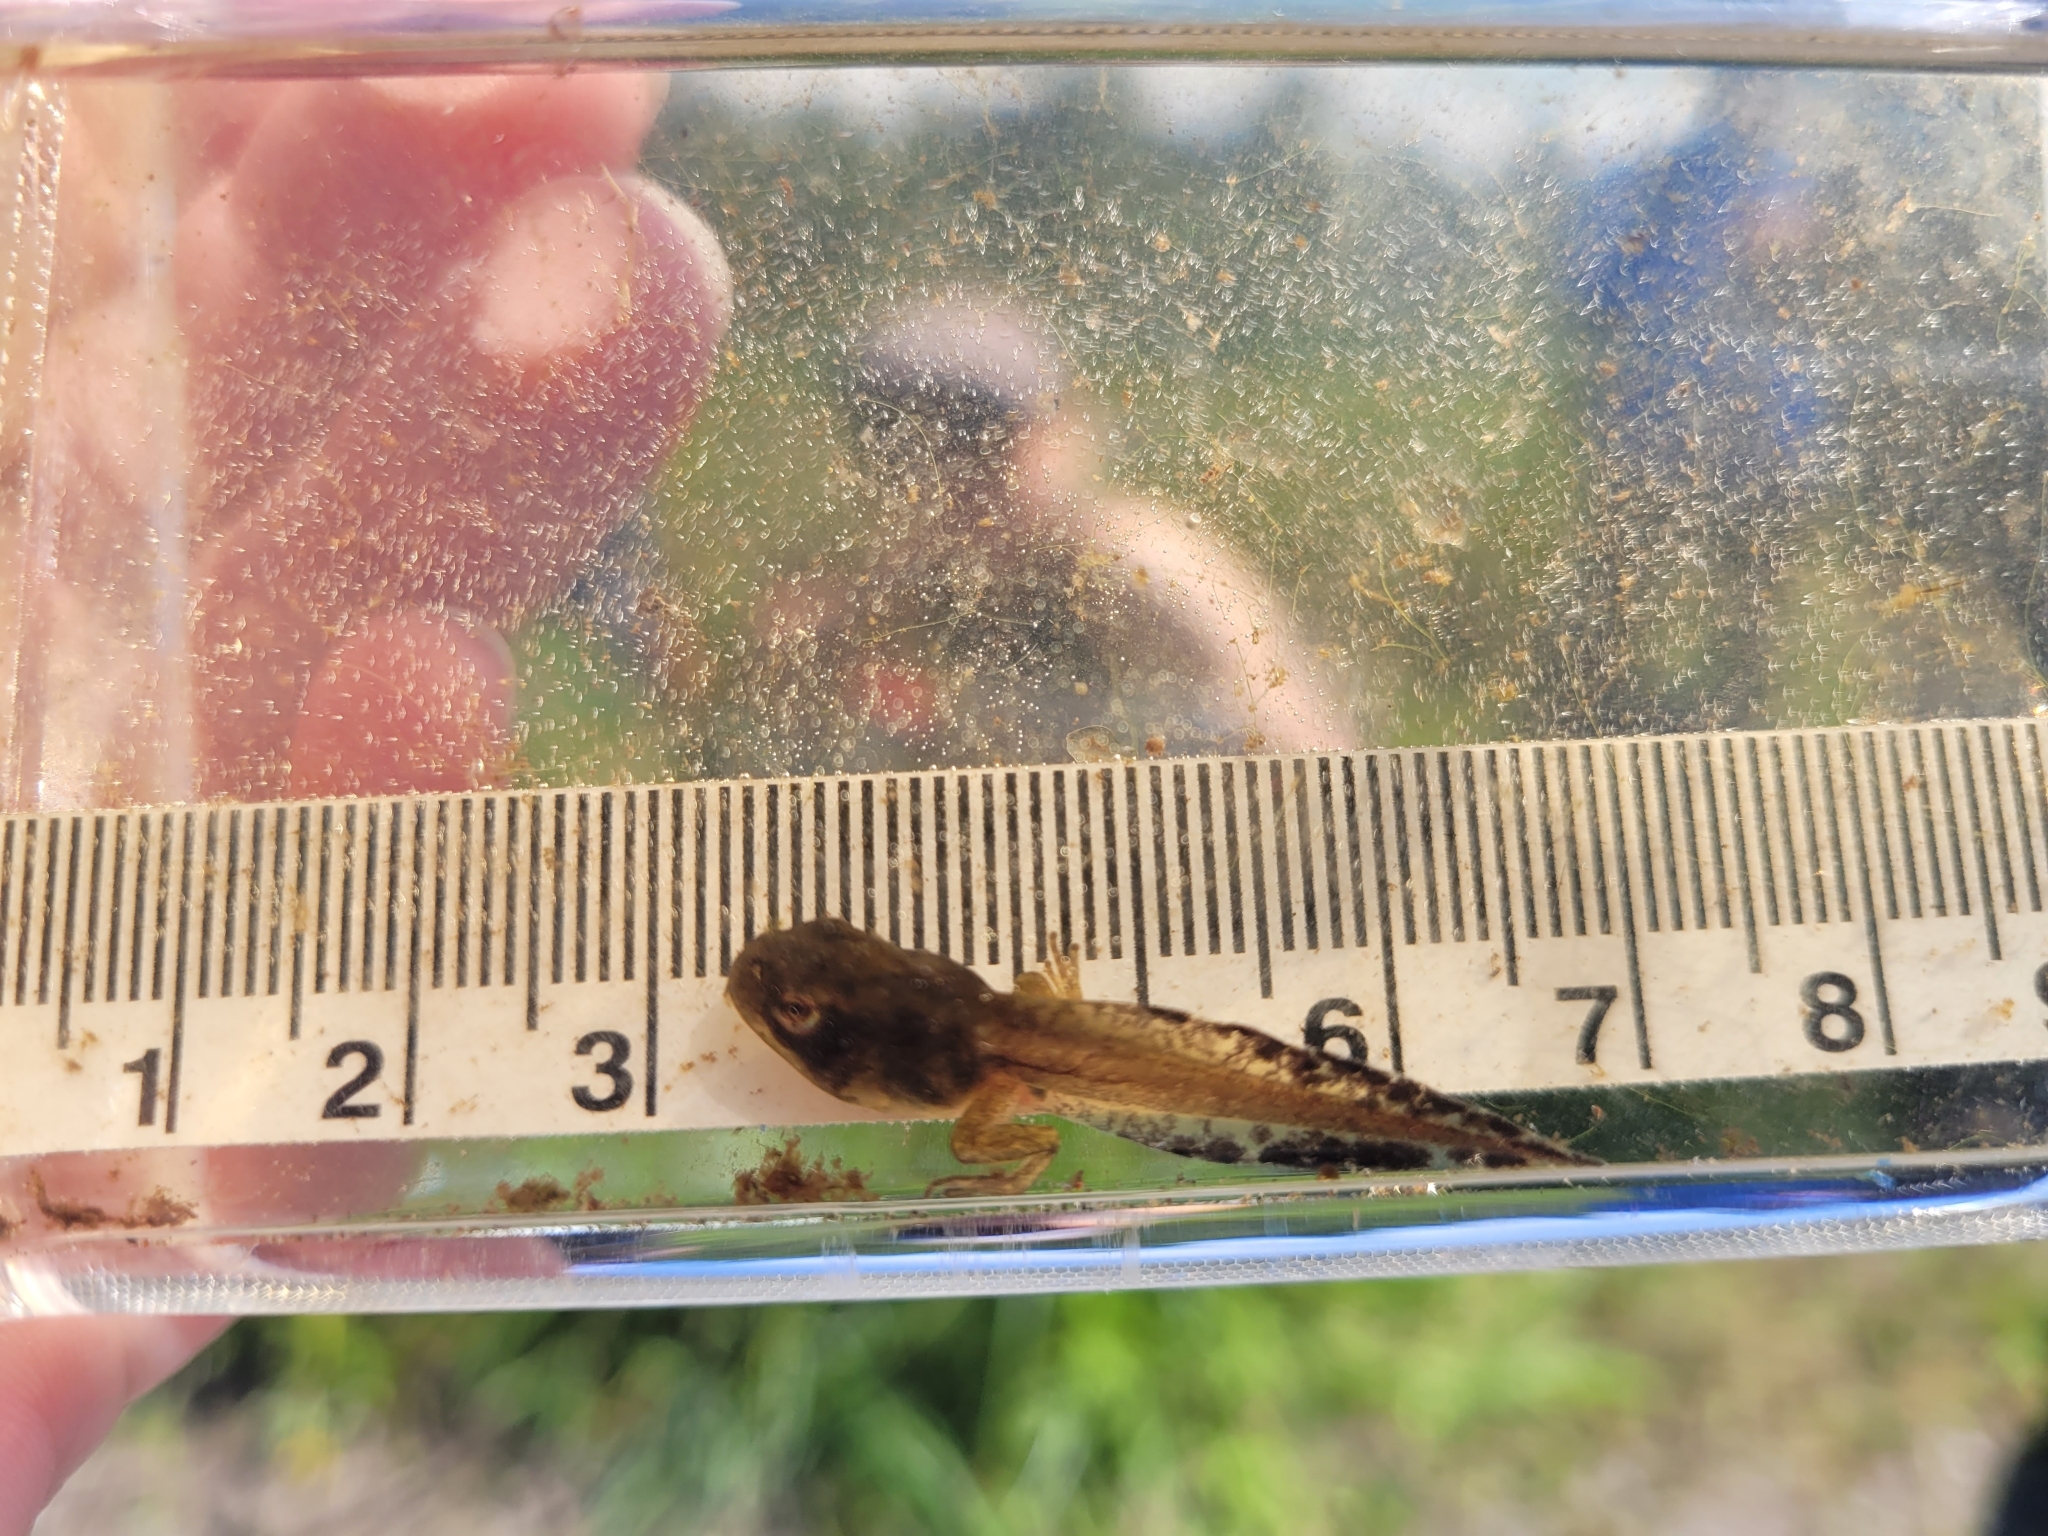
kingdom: Animalia
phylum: Chordata
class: Amphibia
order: Anura
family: Hylidae
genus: Pseudacris
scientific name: Pseudacris crucifer
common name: Spring peeper
